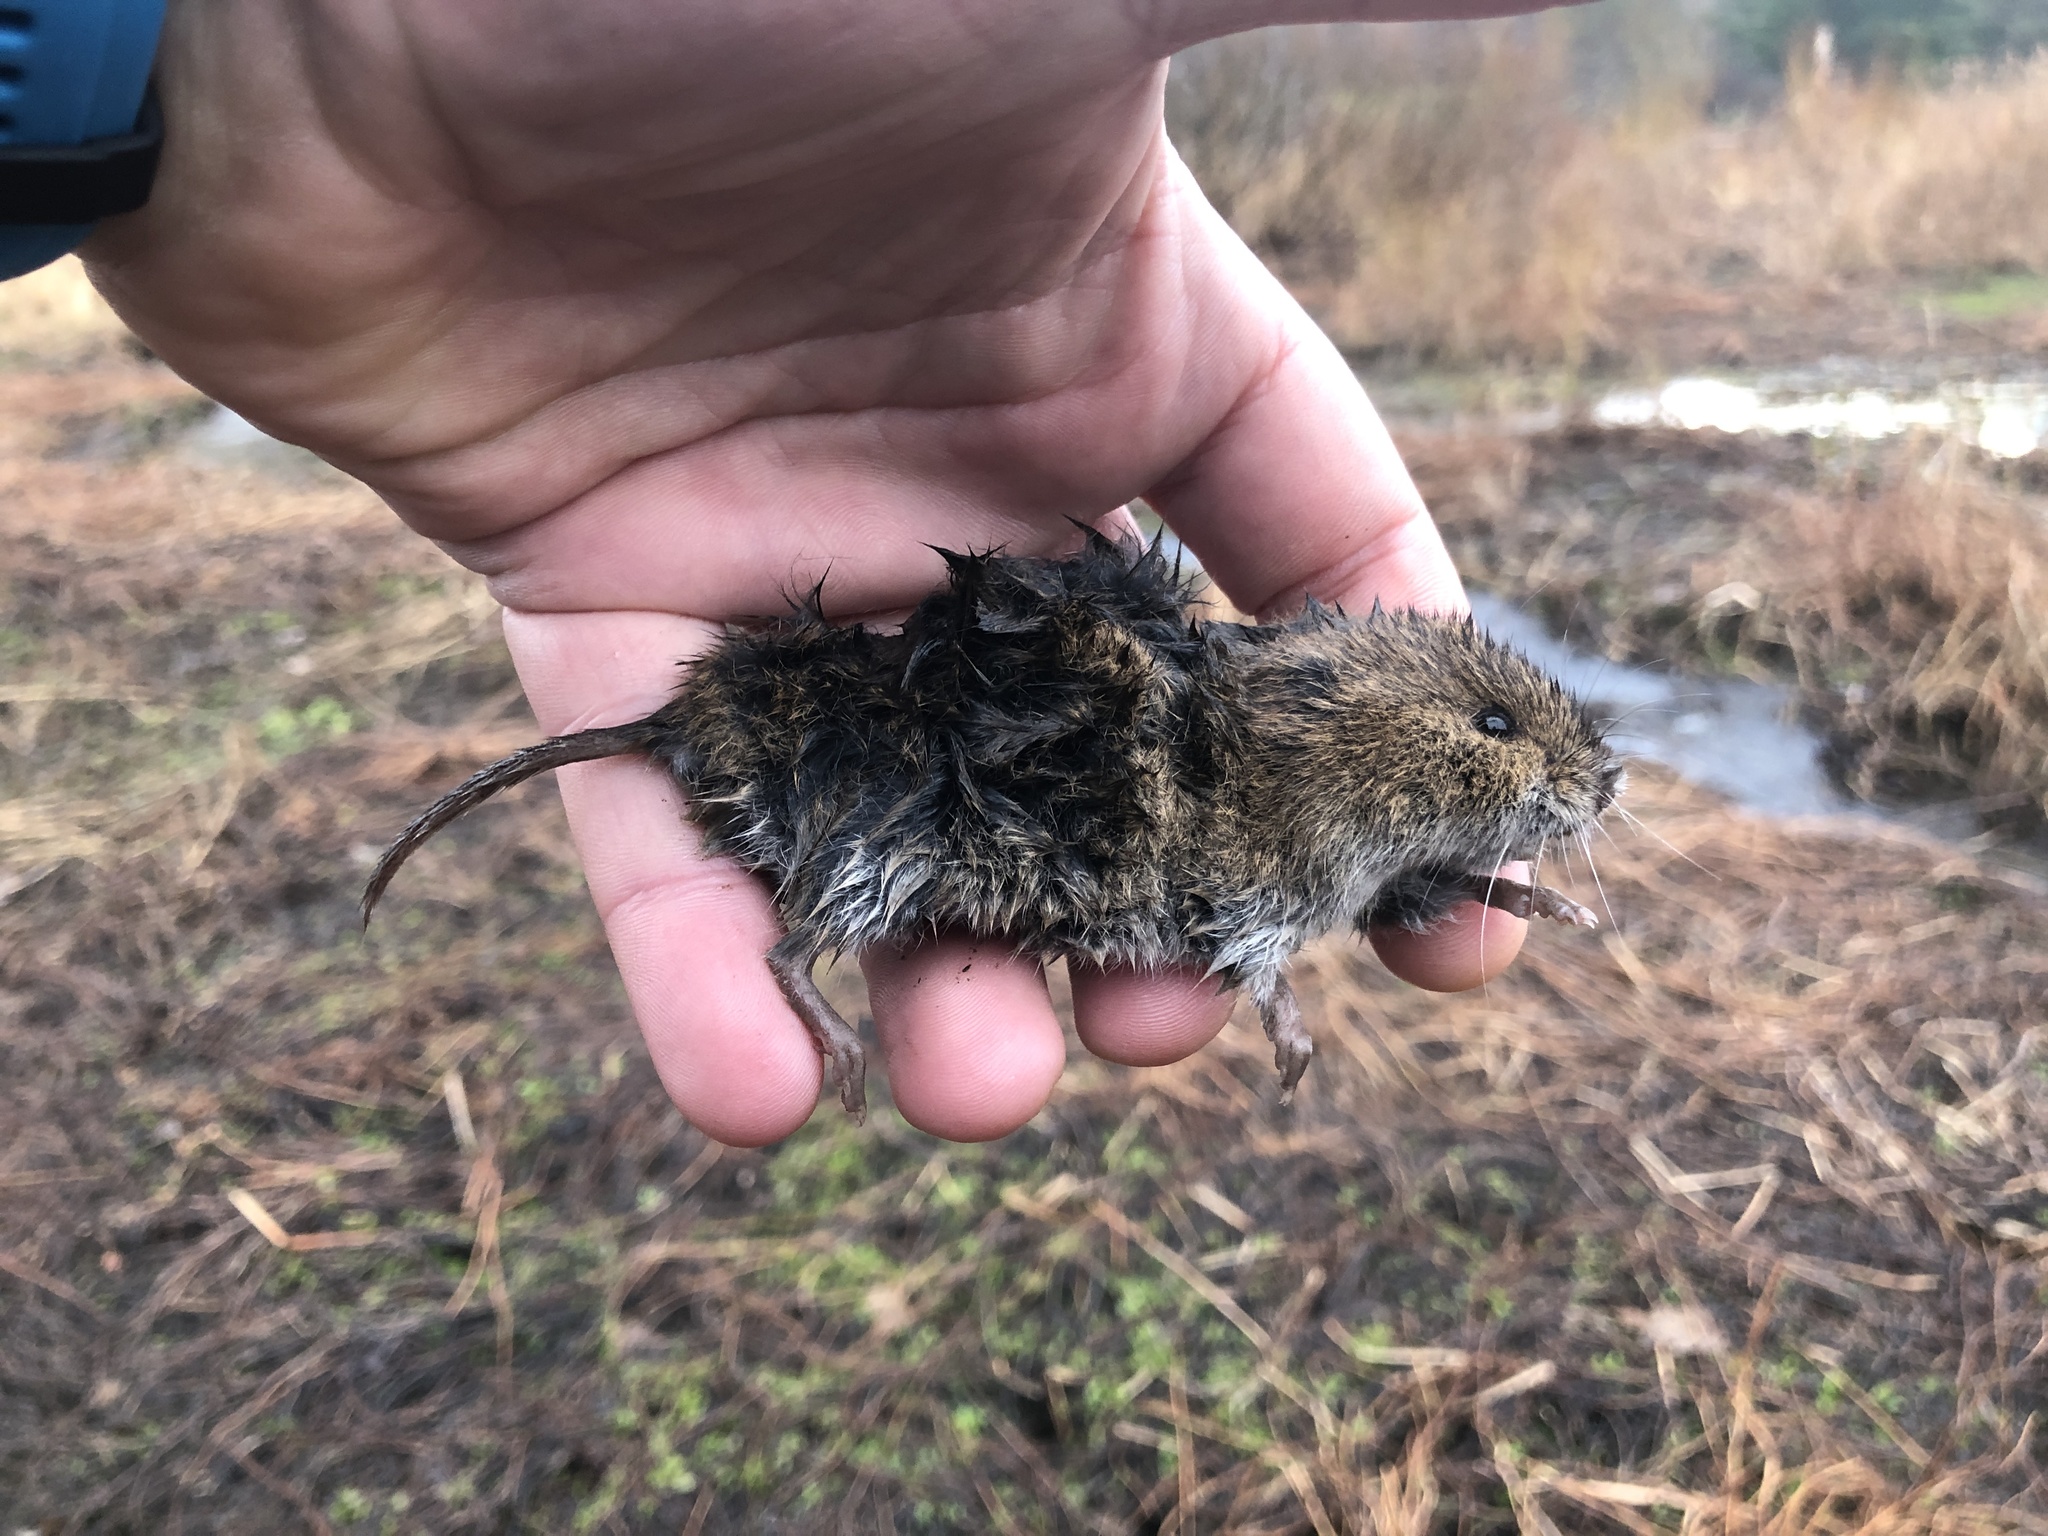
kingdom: Animalia
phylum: Chordata
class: Mammalia
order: Rodentia
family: Cricetidae
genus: Microtus
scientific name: Microtus pennsylvanicus
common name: Meadow vole
